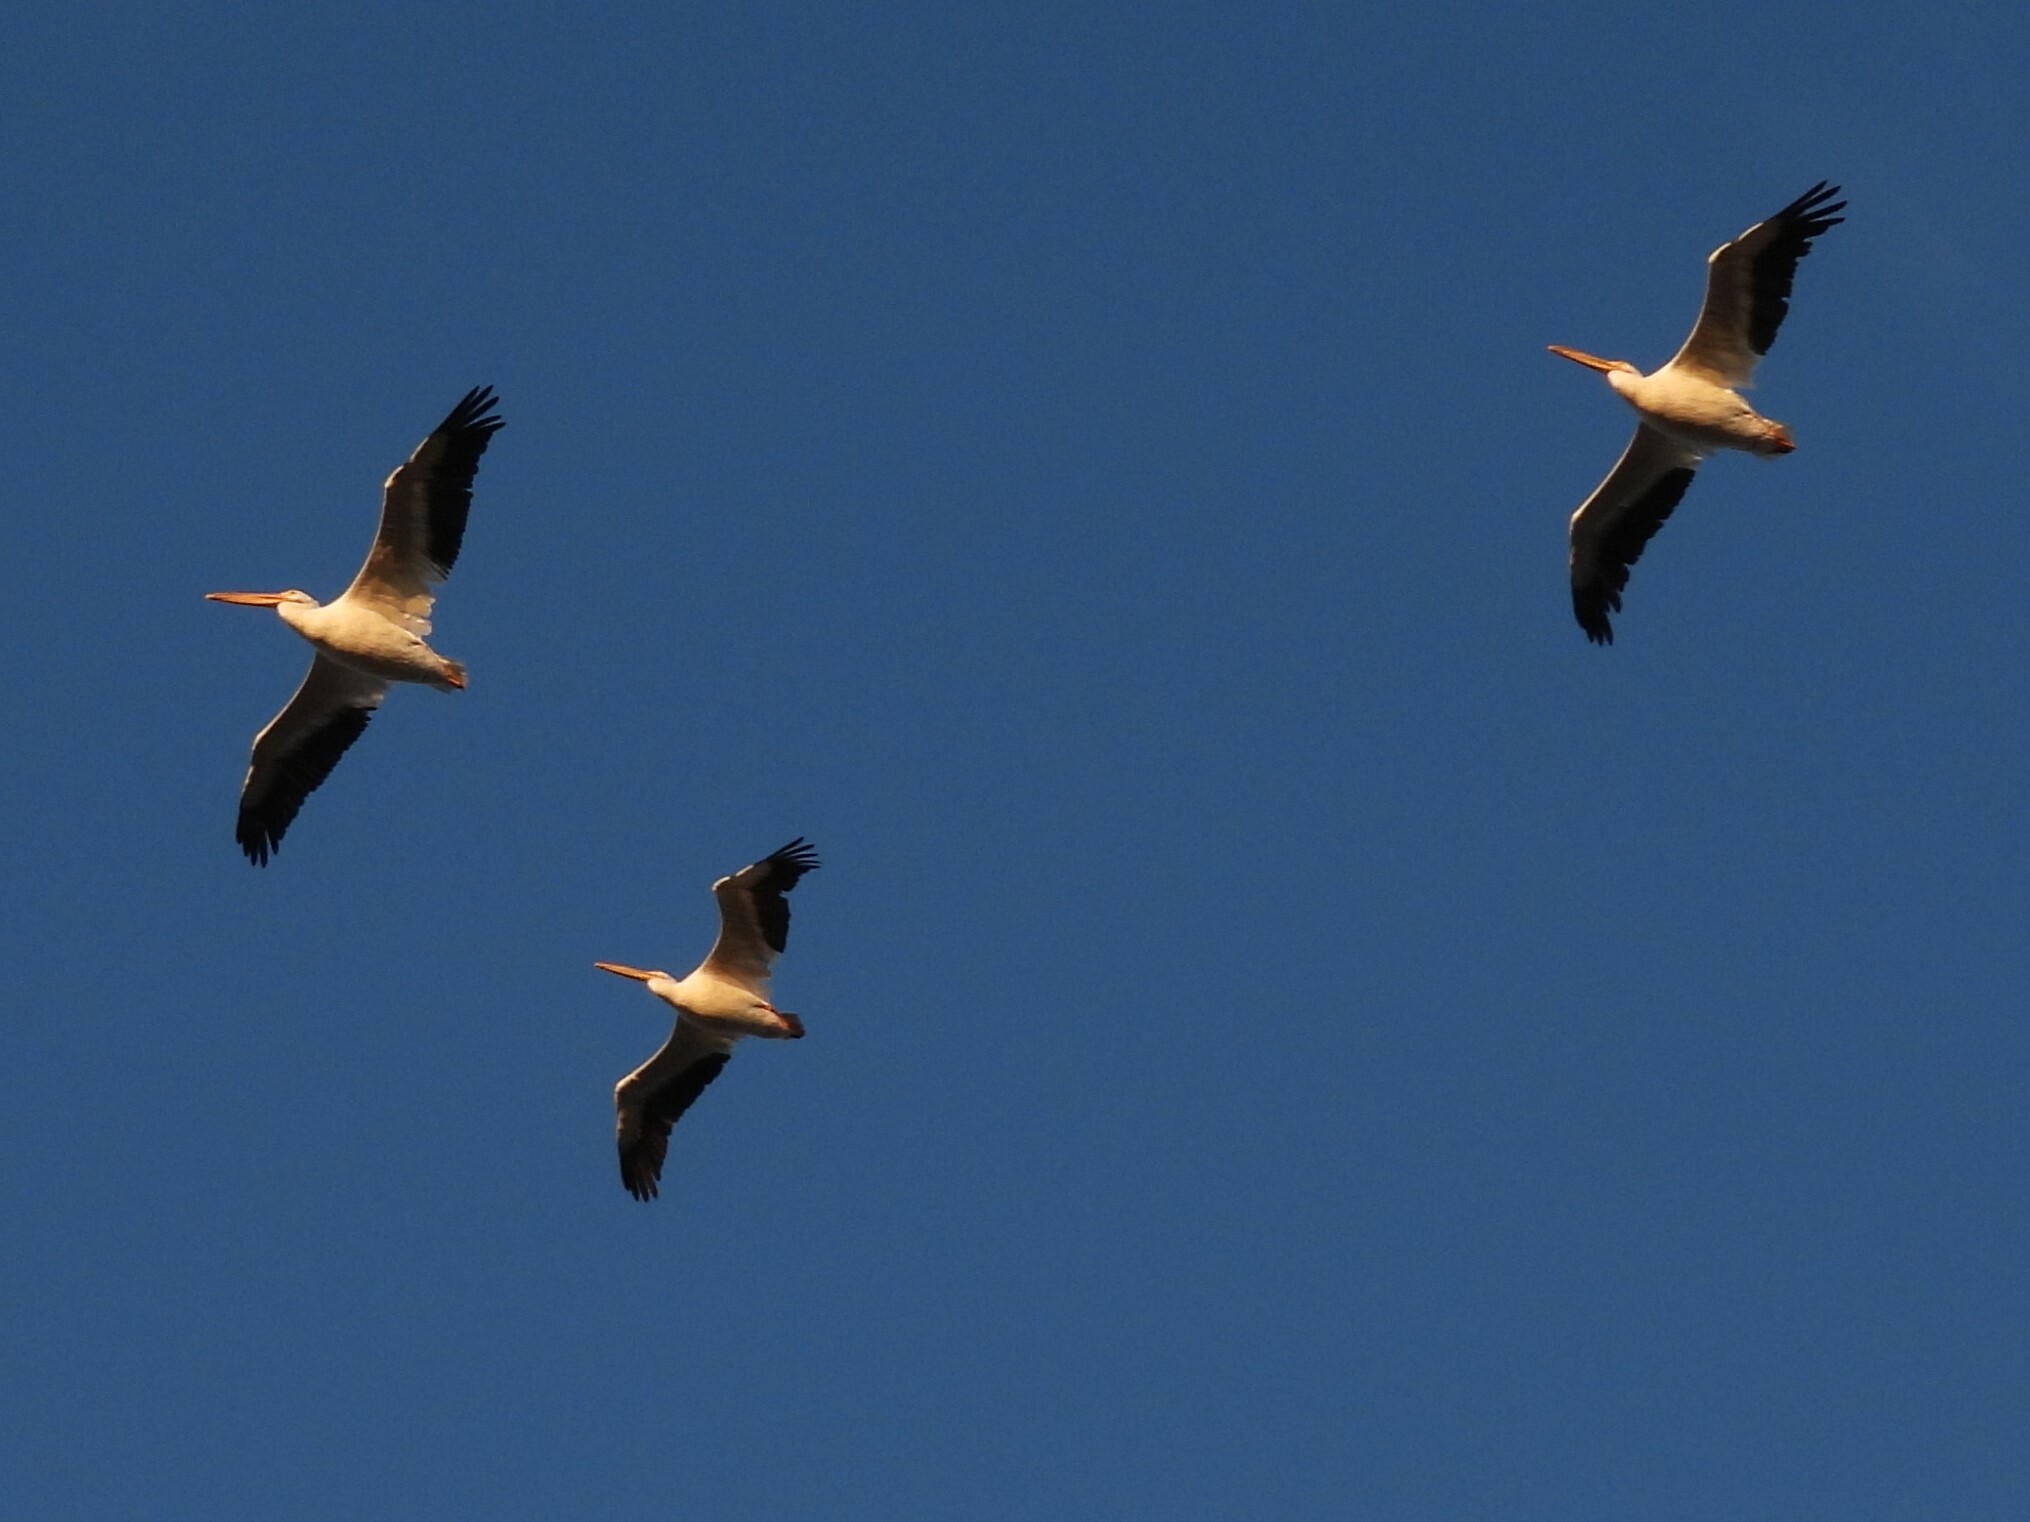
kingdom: Animalia
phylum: Chordata
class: Aves
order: Pelecaniformes
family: Pelecanidae
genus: Pelecanus
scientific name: Pelecanus erythrorhynchos
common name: American white pelican
